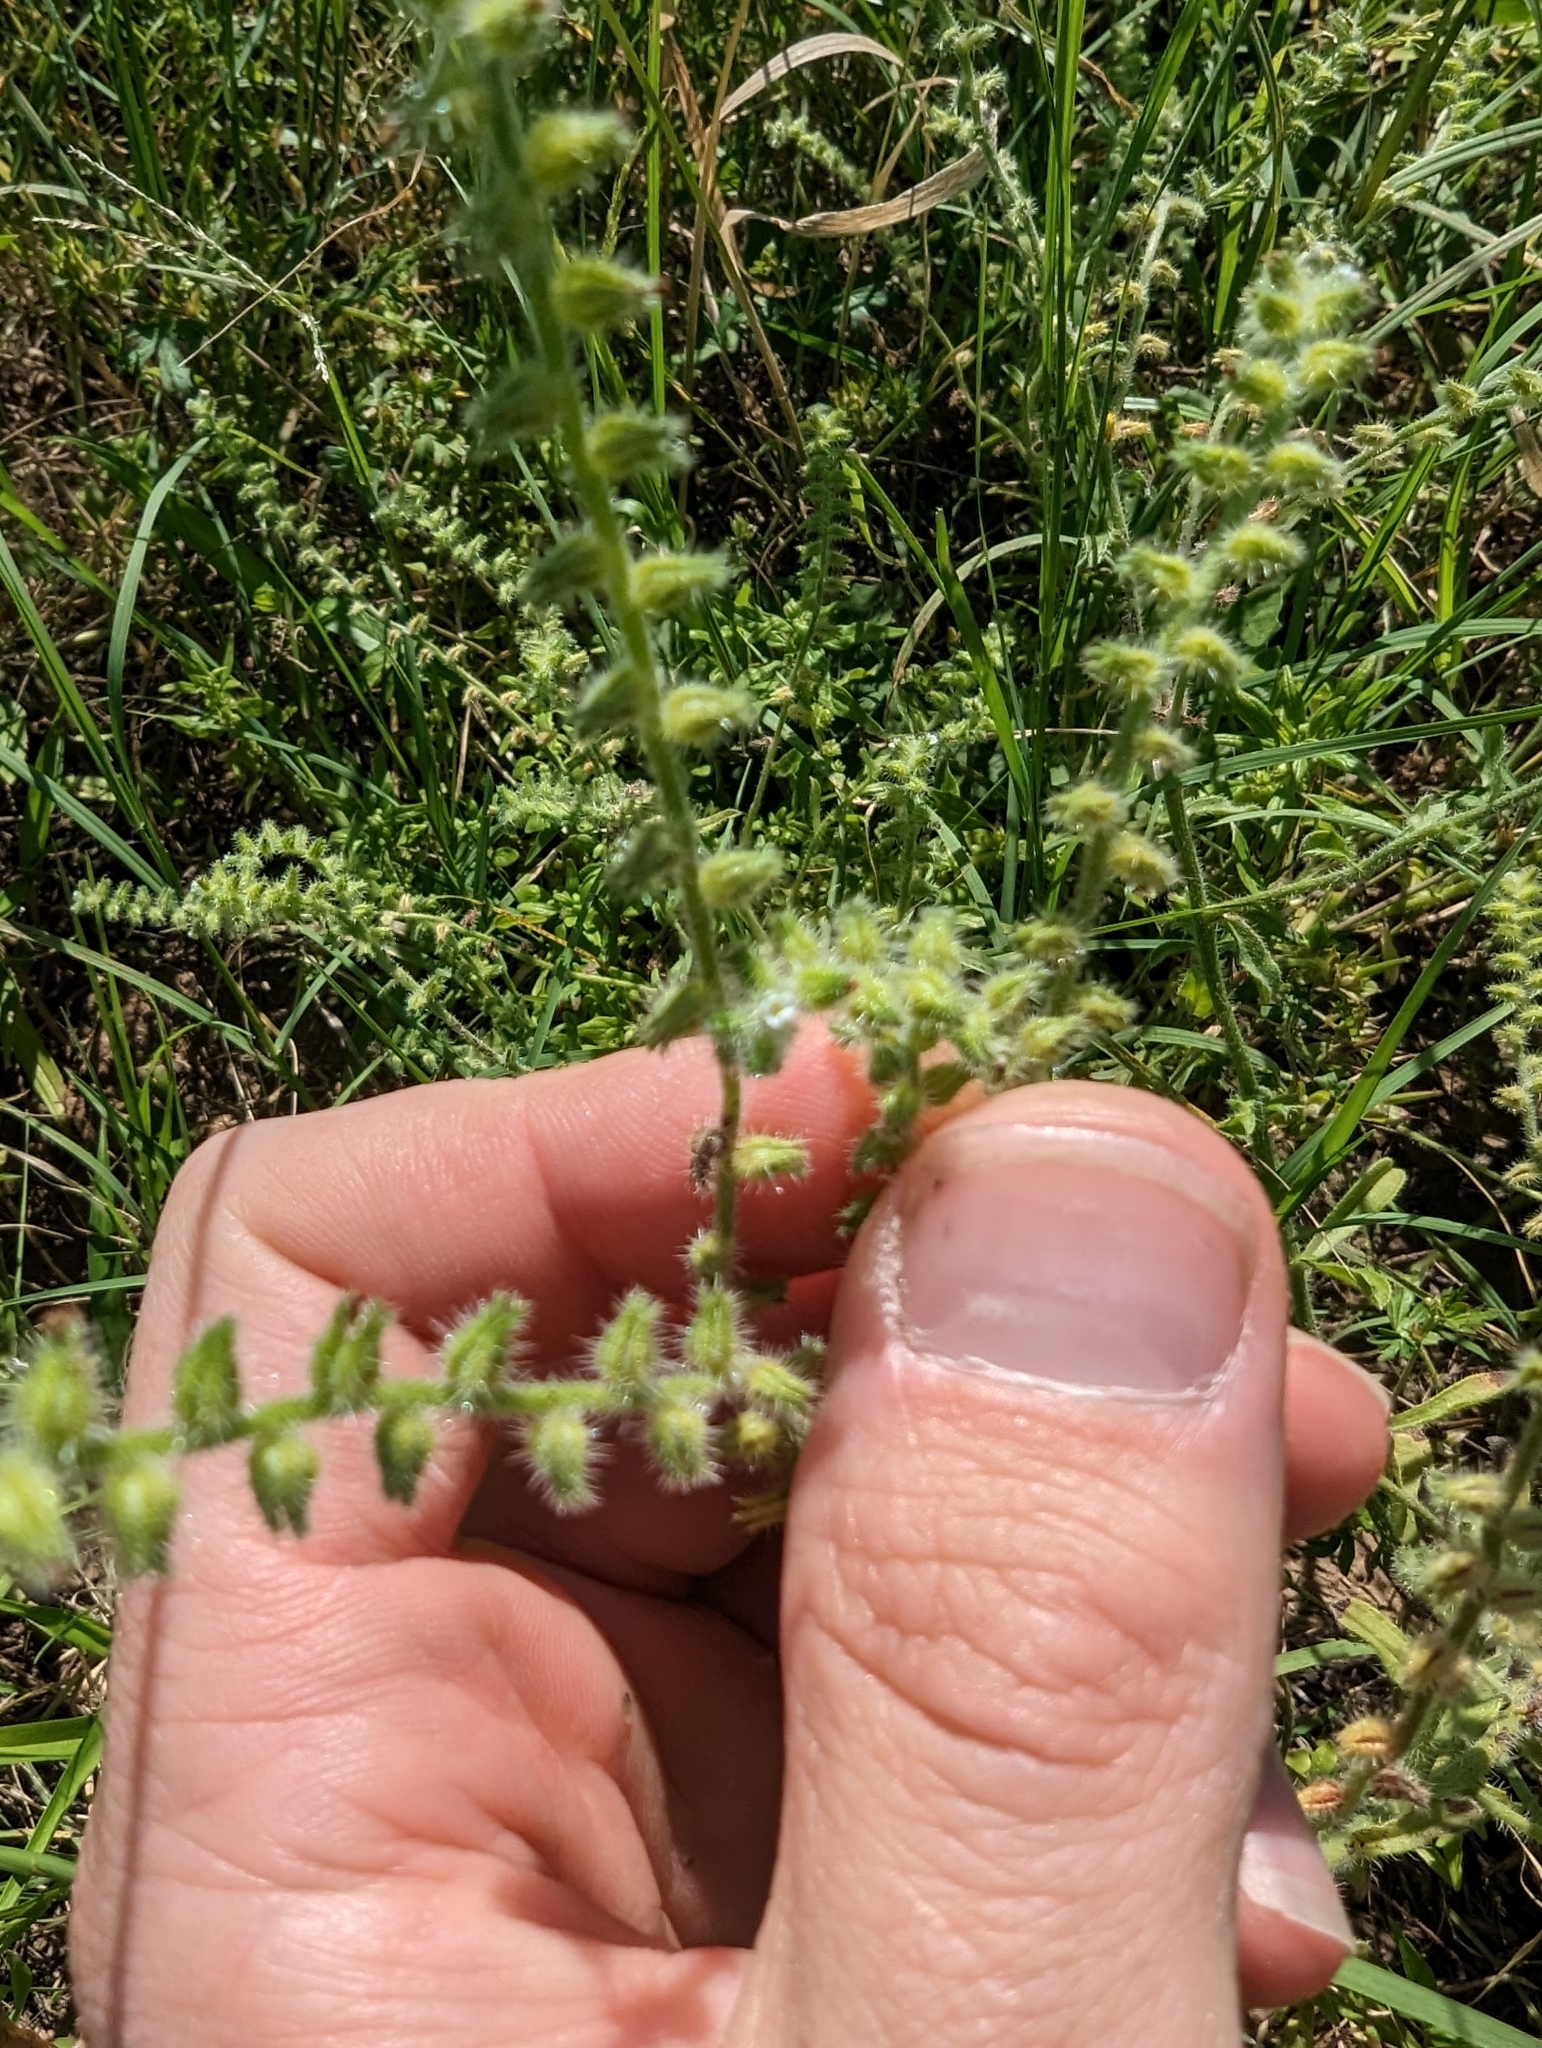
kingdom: Plantae
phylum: Tracheophyta
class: Magnoliopsida
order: Boraginales
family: Boraginaceae
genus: Cryptantha
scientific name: Cryptantha texana
